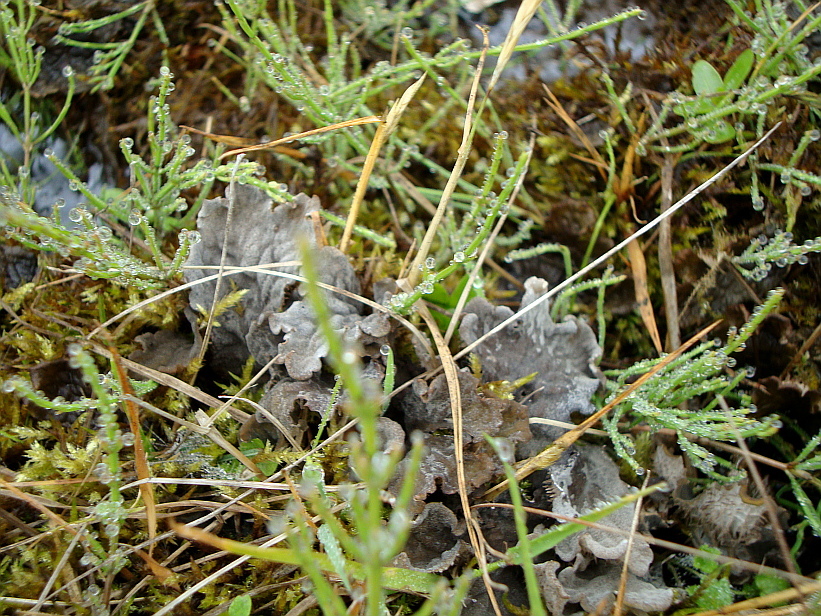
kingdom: Plantae
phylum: Tracheophyta
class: Magnoliopsida
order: Ericales
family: Ericaceae
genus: Vaccinium
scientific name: Vaccinium myrtillus
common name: Bilberry
